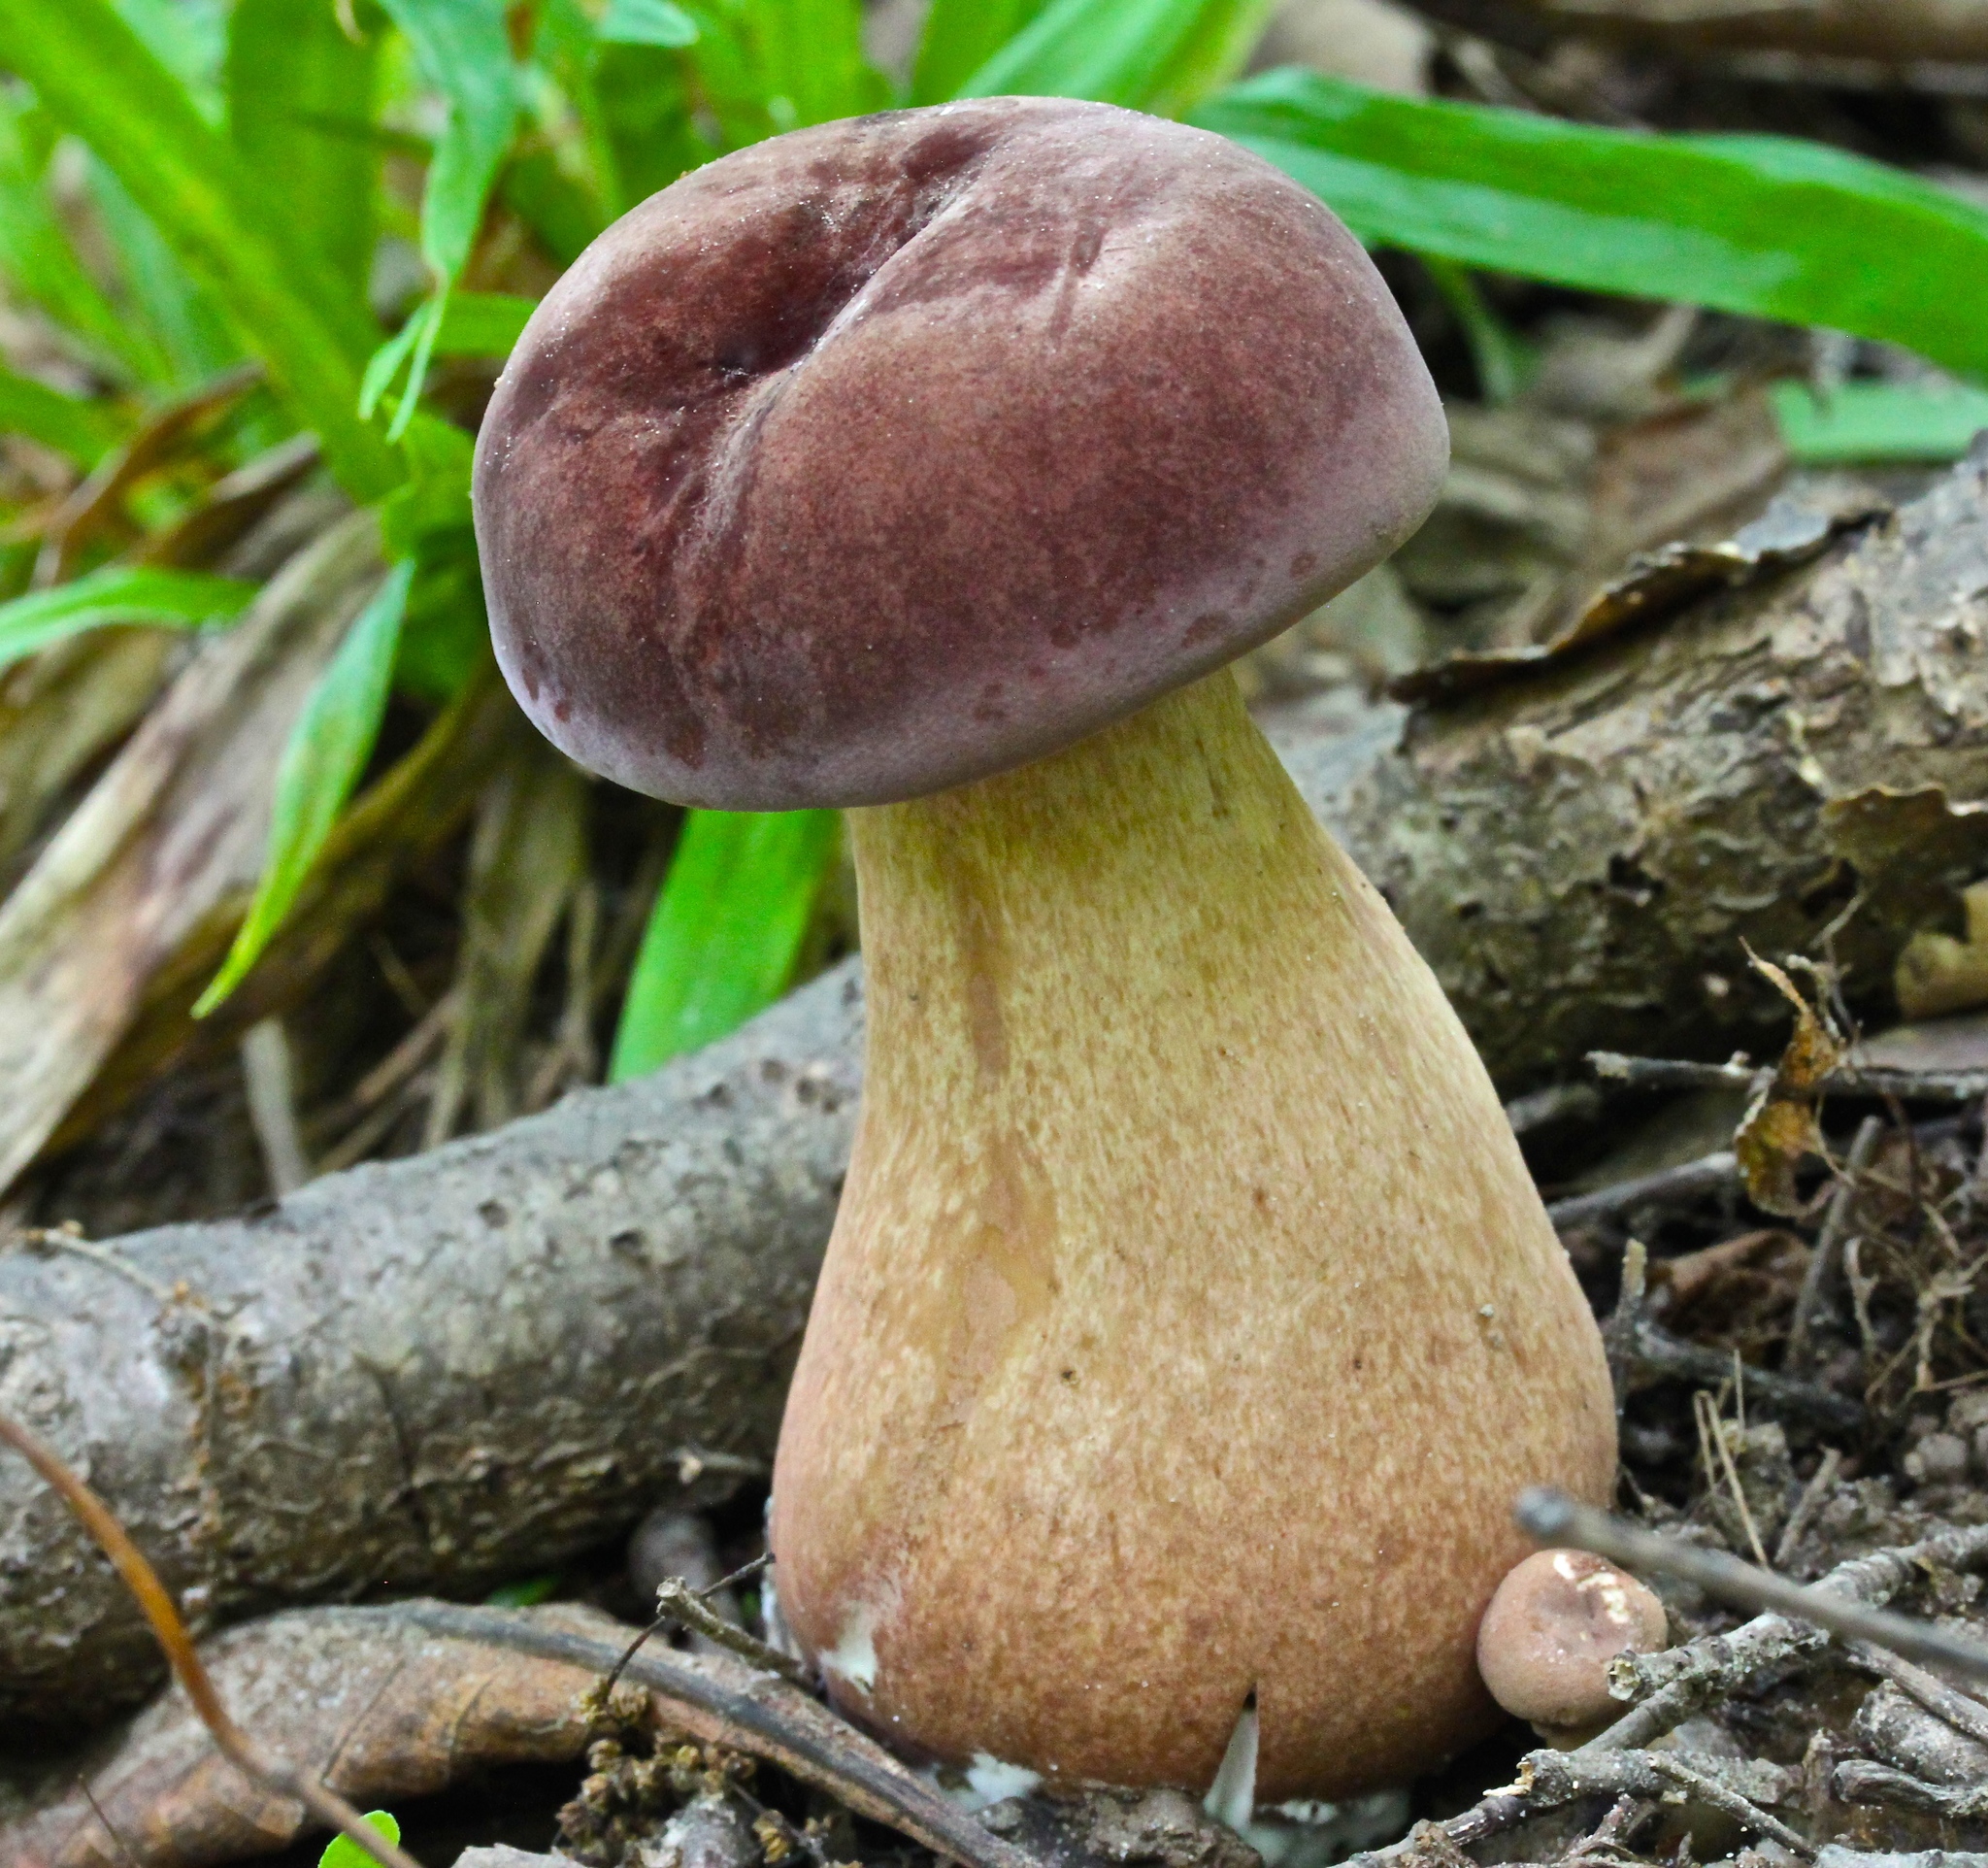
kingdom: Fungi
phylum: Basidiomycota
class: Agaricomycetes
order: Boletales
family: Boletaceae
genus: Tylopilus
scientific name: Tylopilus rubrobrunneus
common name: Reddish brown bitter bolete
